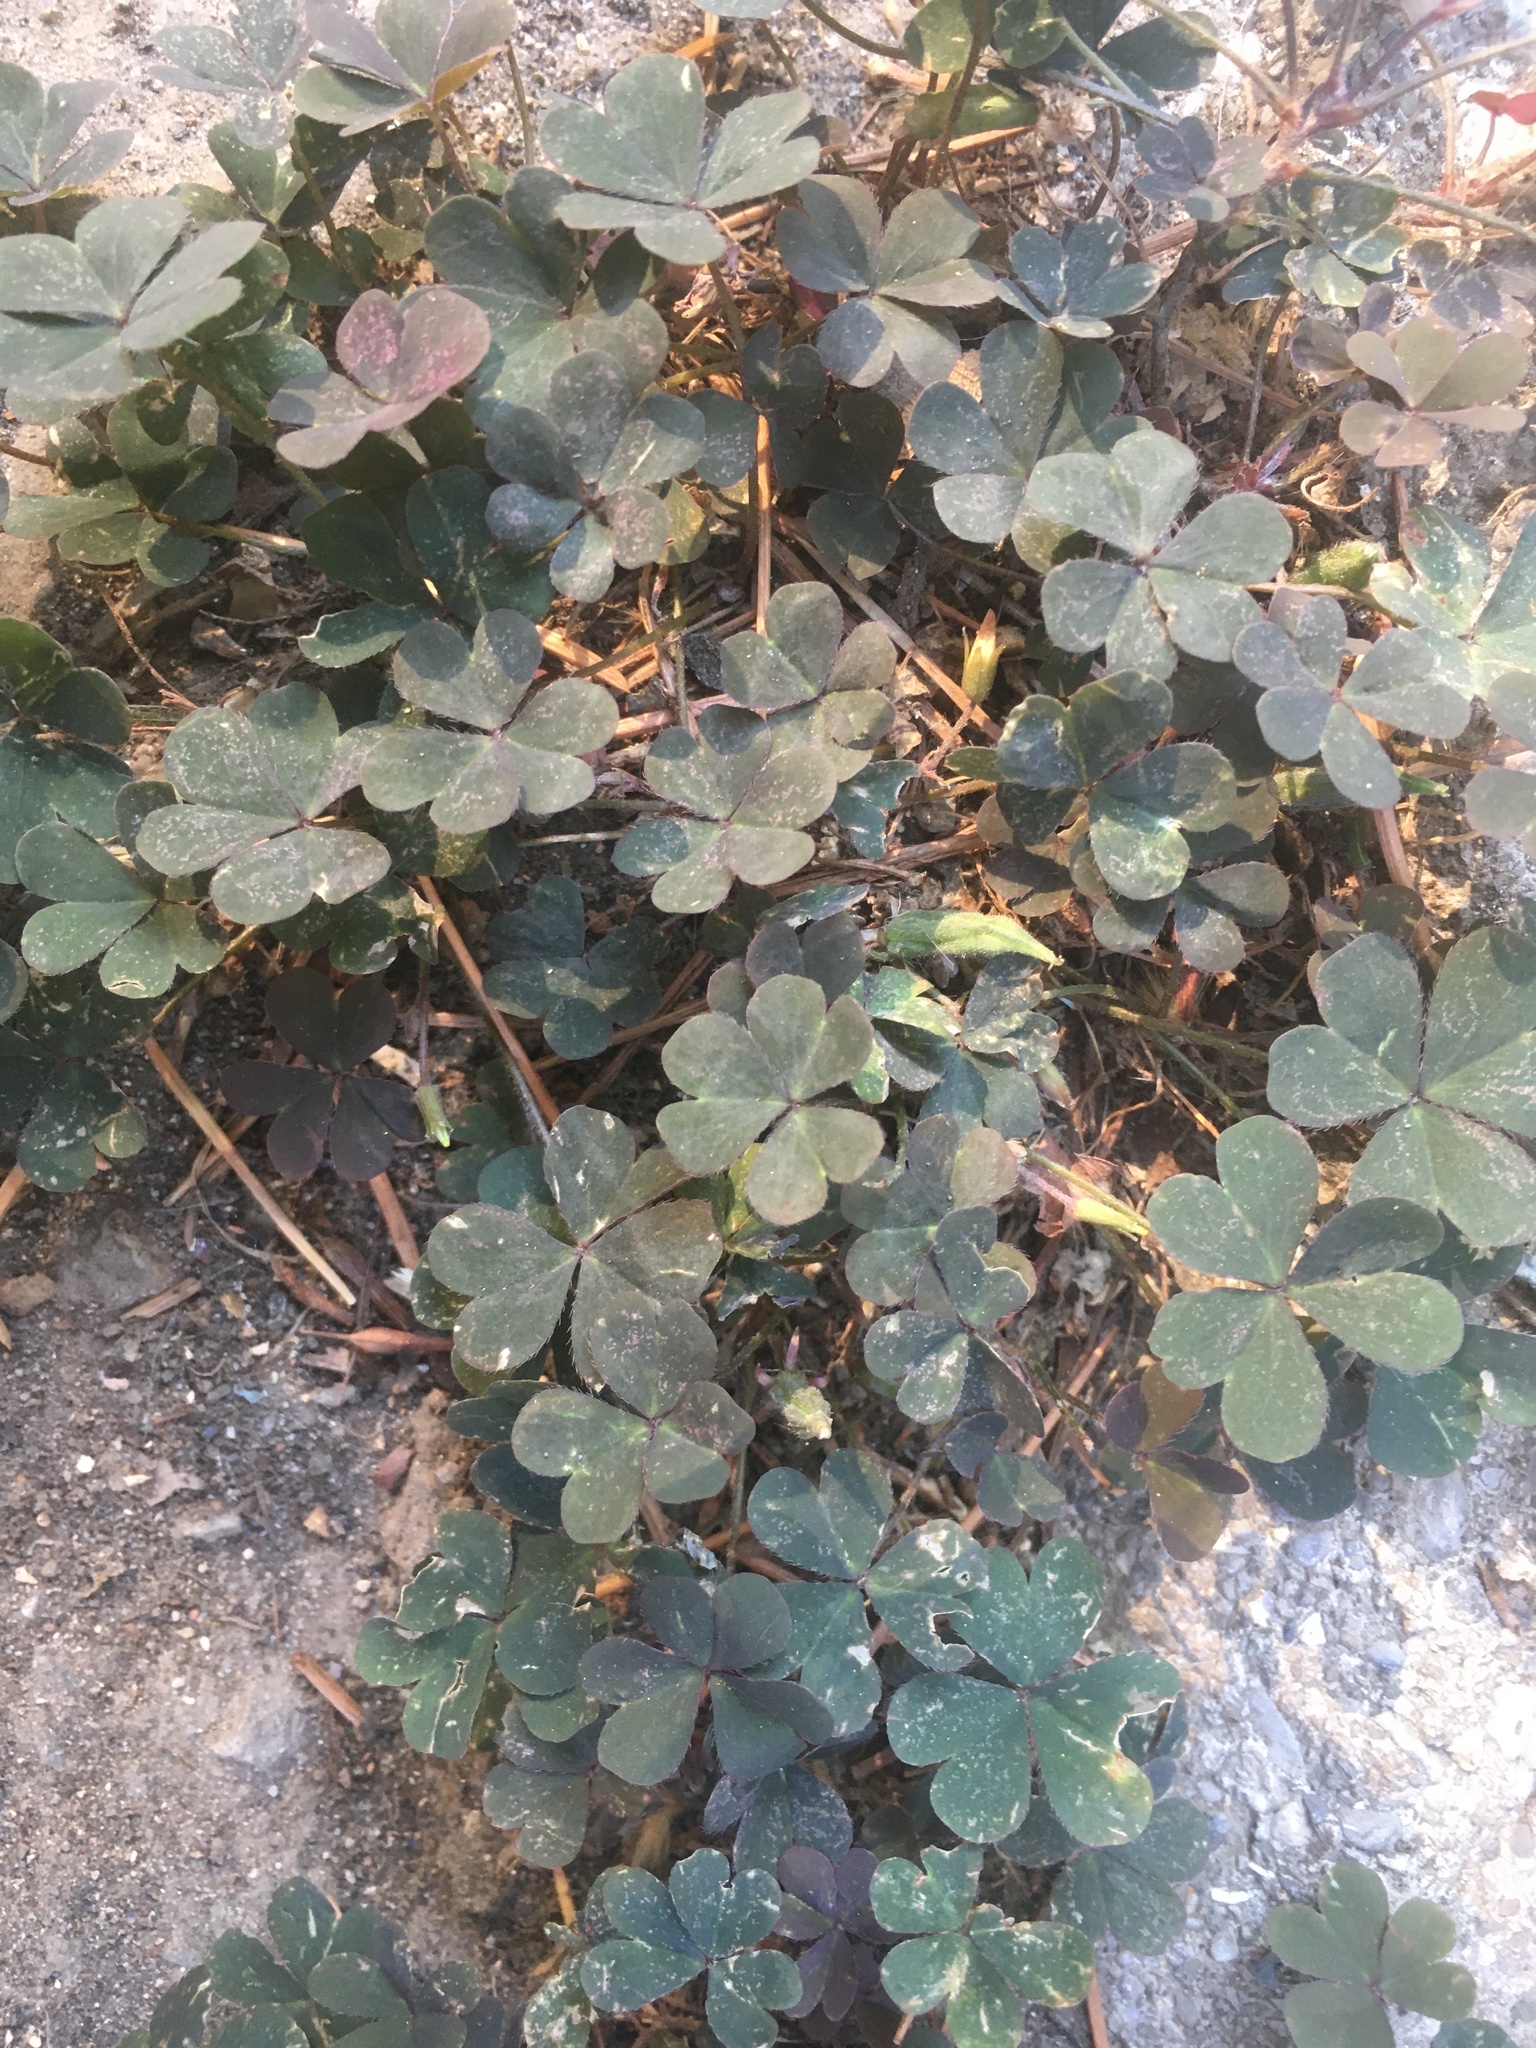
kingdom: Plantae
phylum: Tracheophyta
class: Magnoliopsida
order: Oxalidales
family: Oxalidaceae
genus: Oxalis
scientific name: Oxalis corniculata
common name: Procumbent yellow-sorrel
